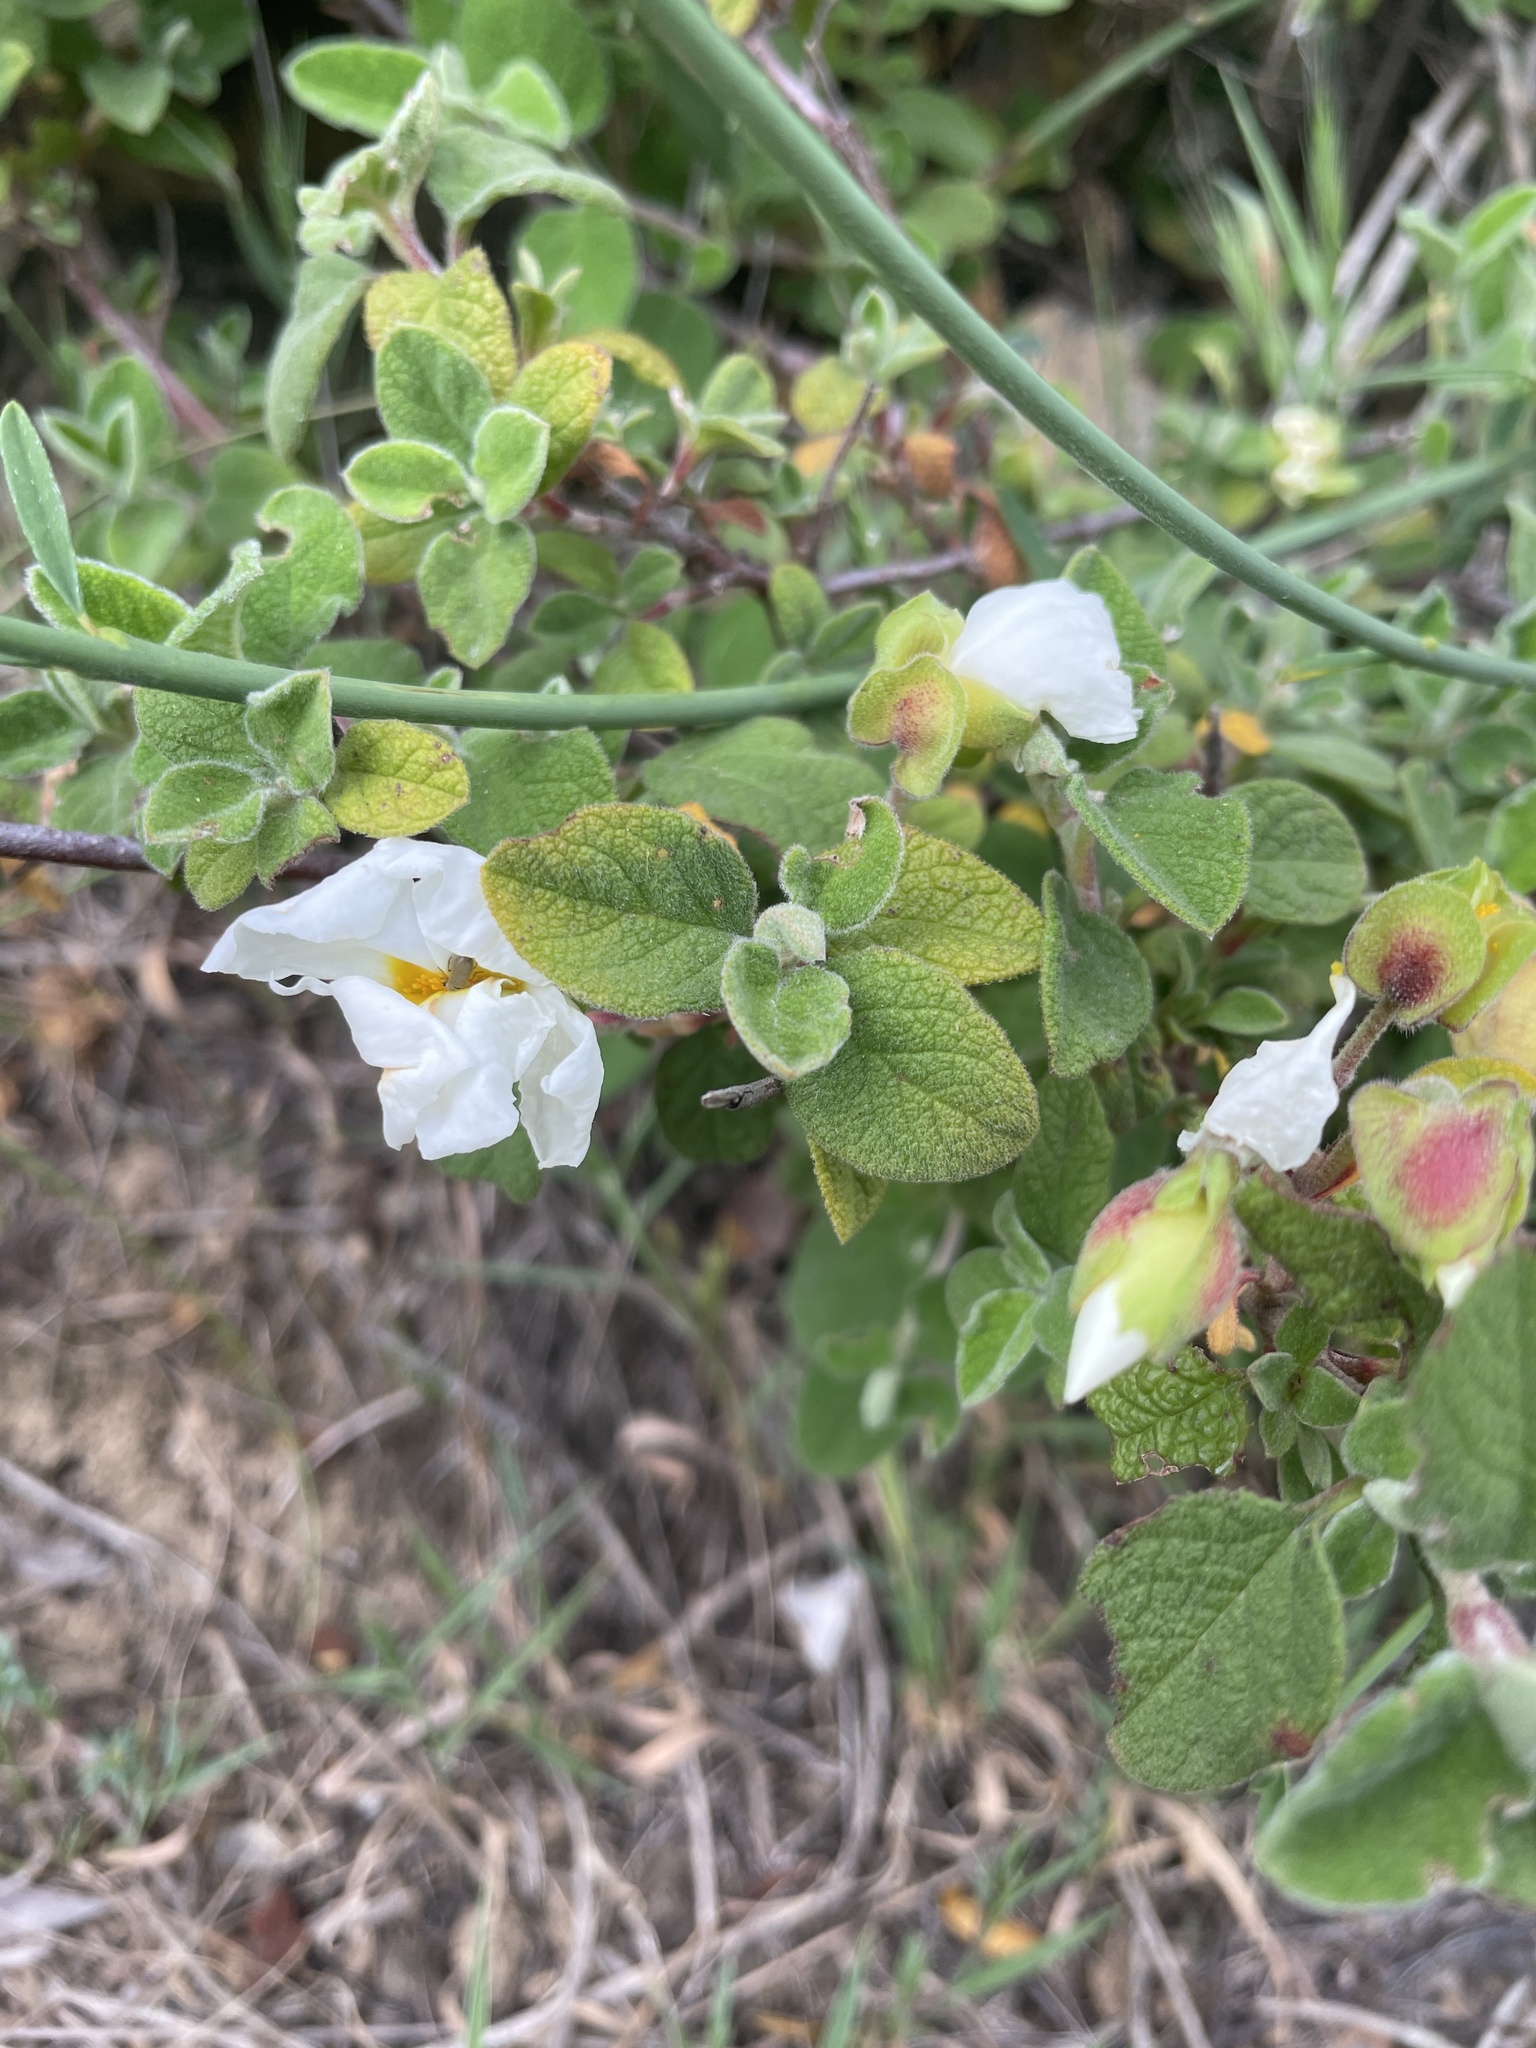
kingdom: Plantae
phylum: Tracheophyta
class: Magnoliopsida
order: Malvales
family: Cistaceae
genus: Cistus
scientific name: Cistus salviifolius
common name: Salvia cistus
